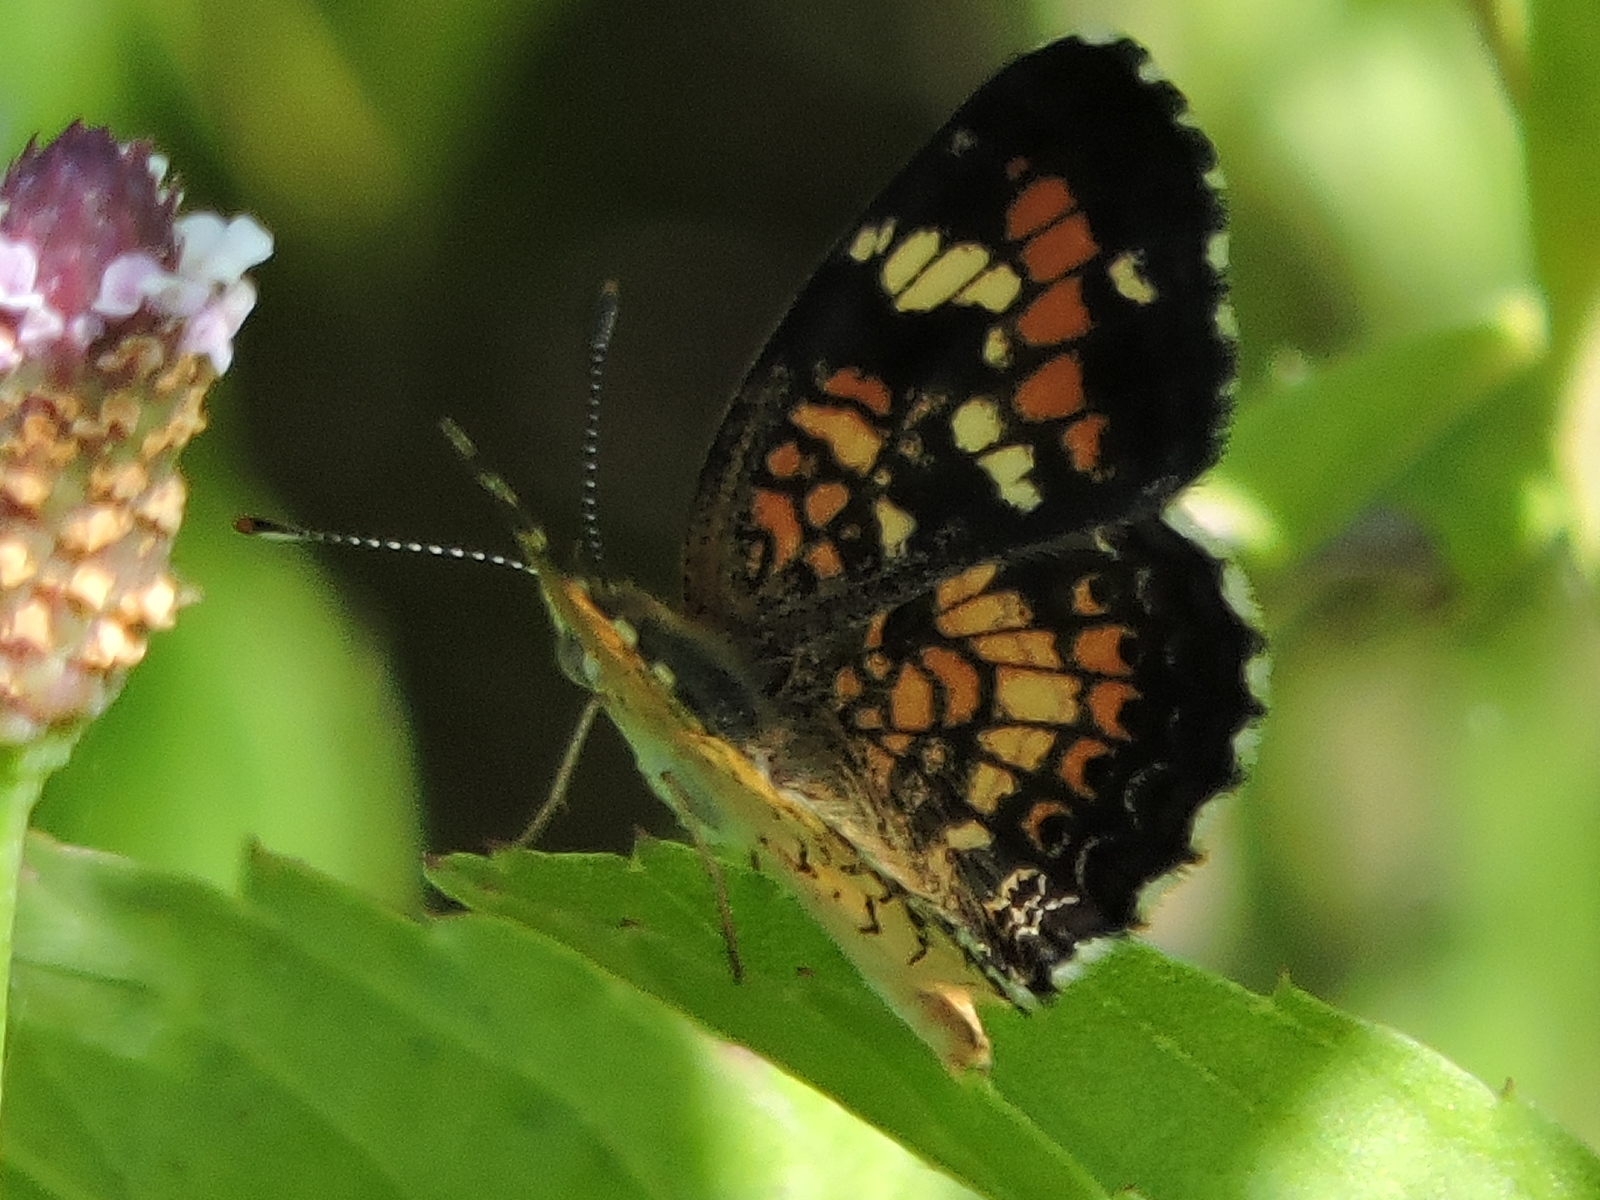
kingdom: Animalia
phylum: Arthropoda
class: Insecta
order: Lepidoptera
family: Nymphalidae
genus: Phyciodes
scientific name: Phyciodes phaon
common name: Phaon crescent
